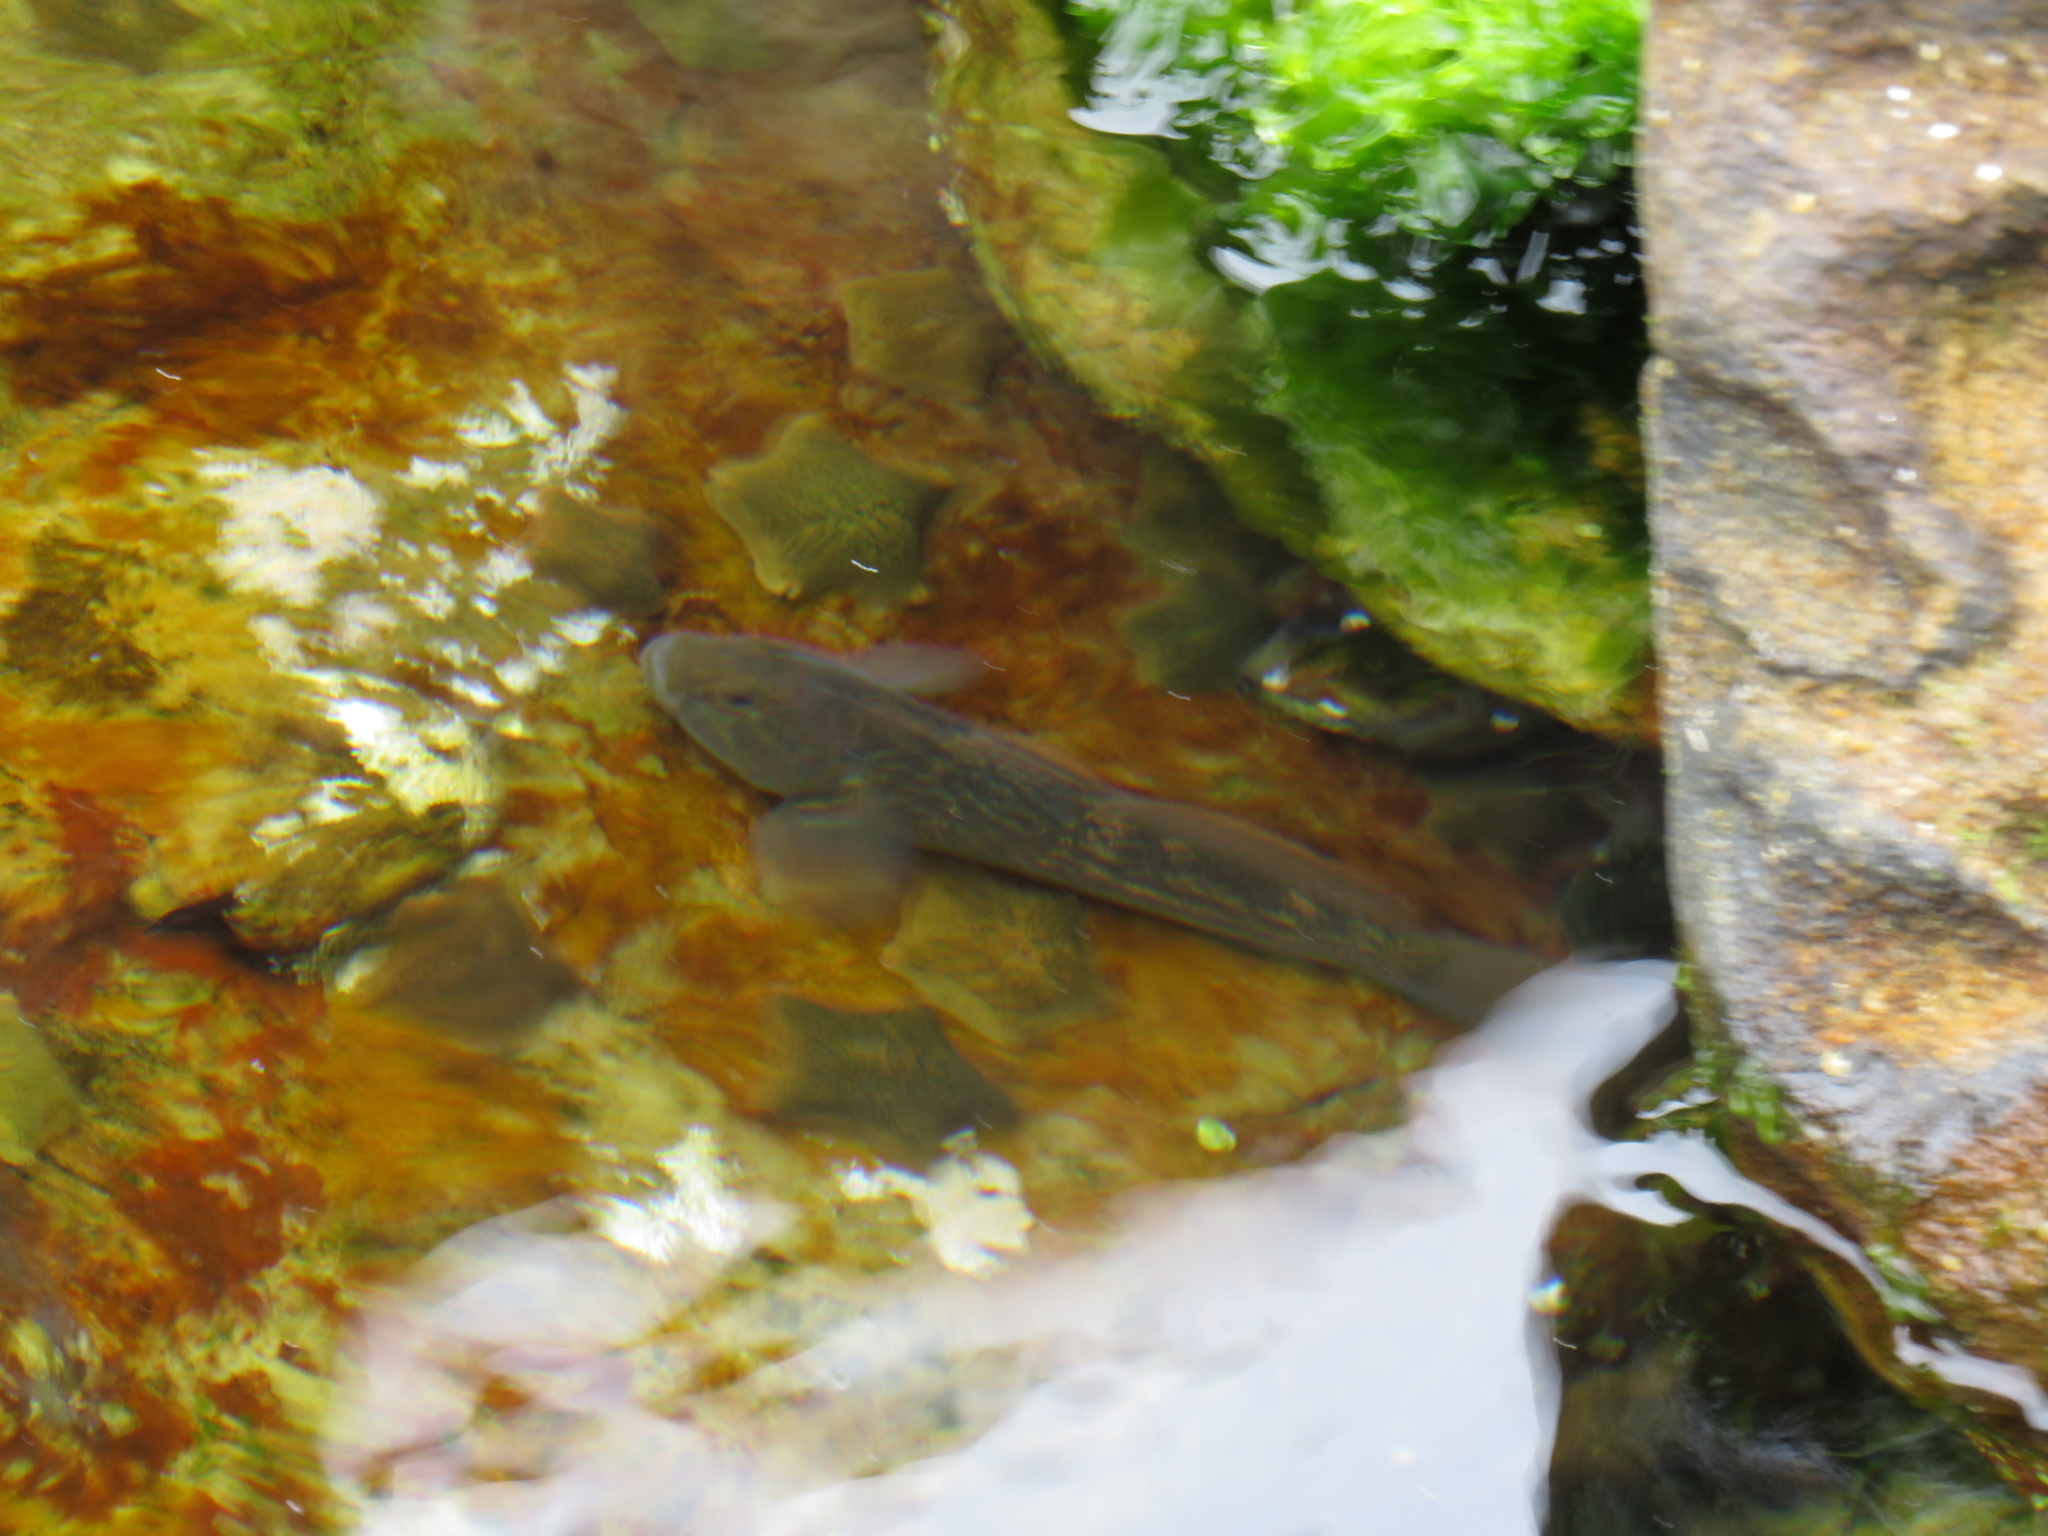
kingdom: Animalia
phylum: Chordata
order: Perciformes
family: Gobiidae
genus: Caffrogobius
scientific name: Caffrogobius caffer
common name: Banded goby
